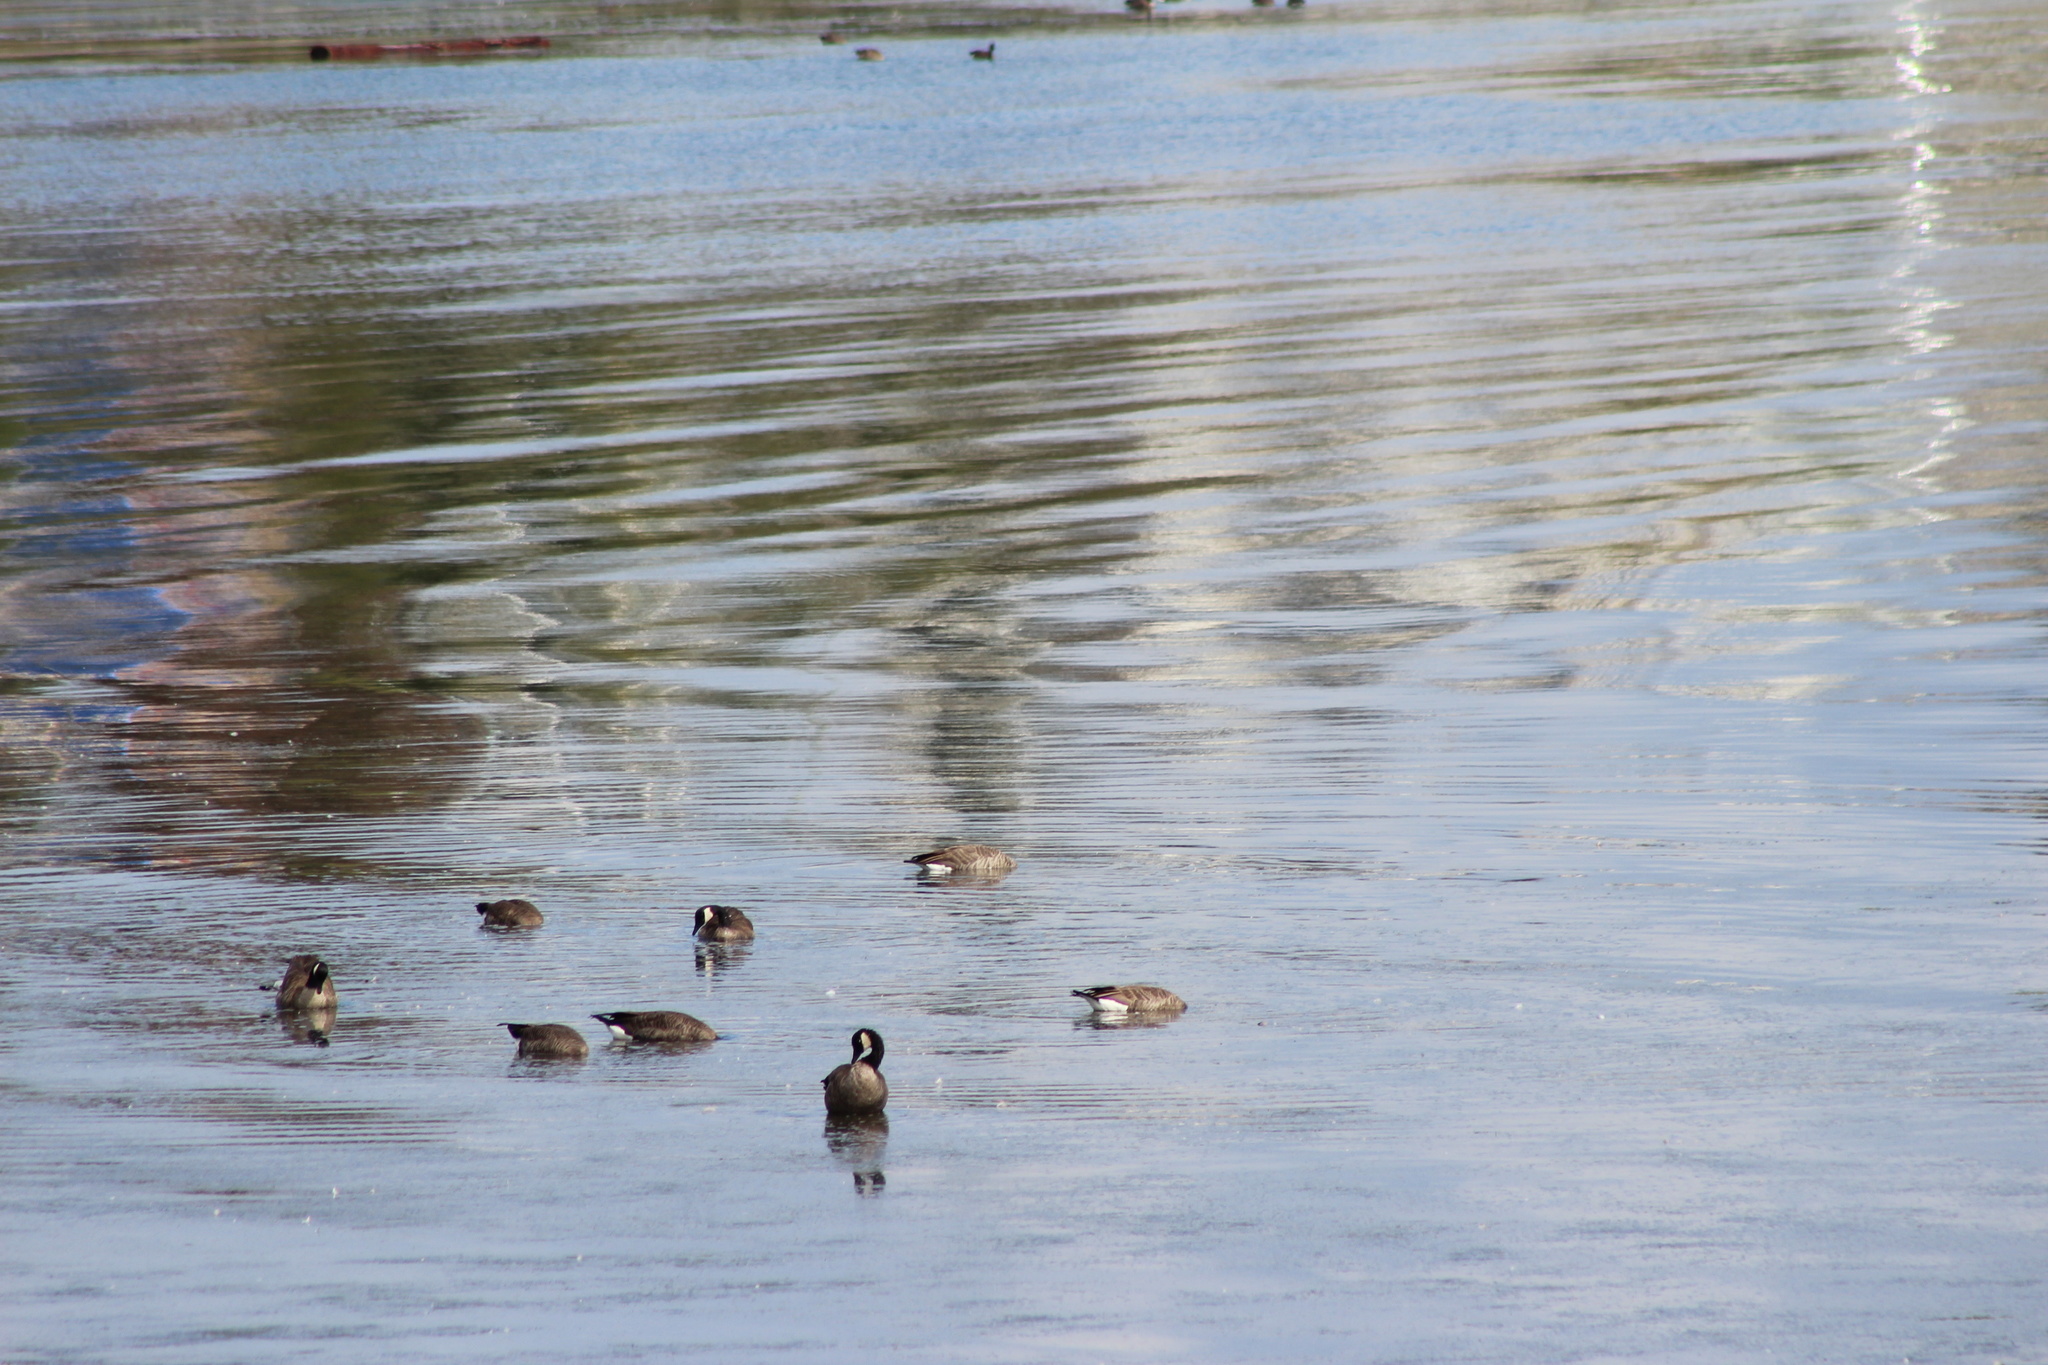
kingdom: Animalia
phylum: Chordata
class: Aves
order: Anseriformes
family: Anatidae
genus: Branta
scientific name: Branta canadensis
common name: Canada goose
